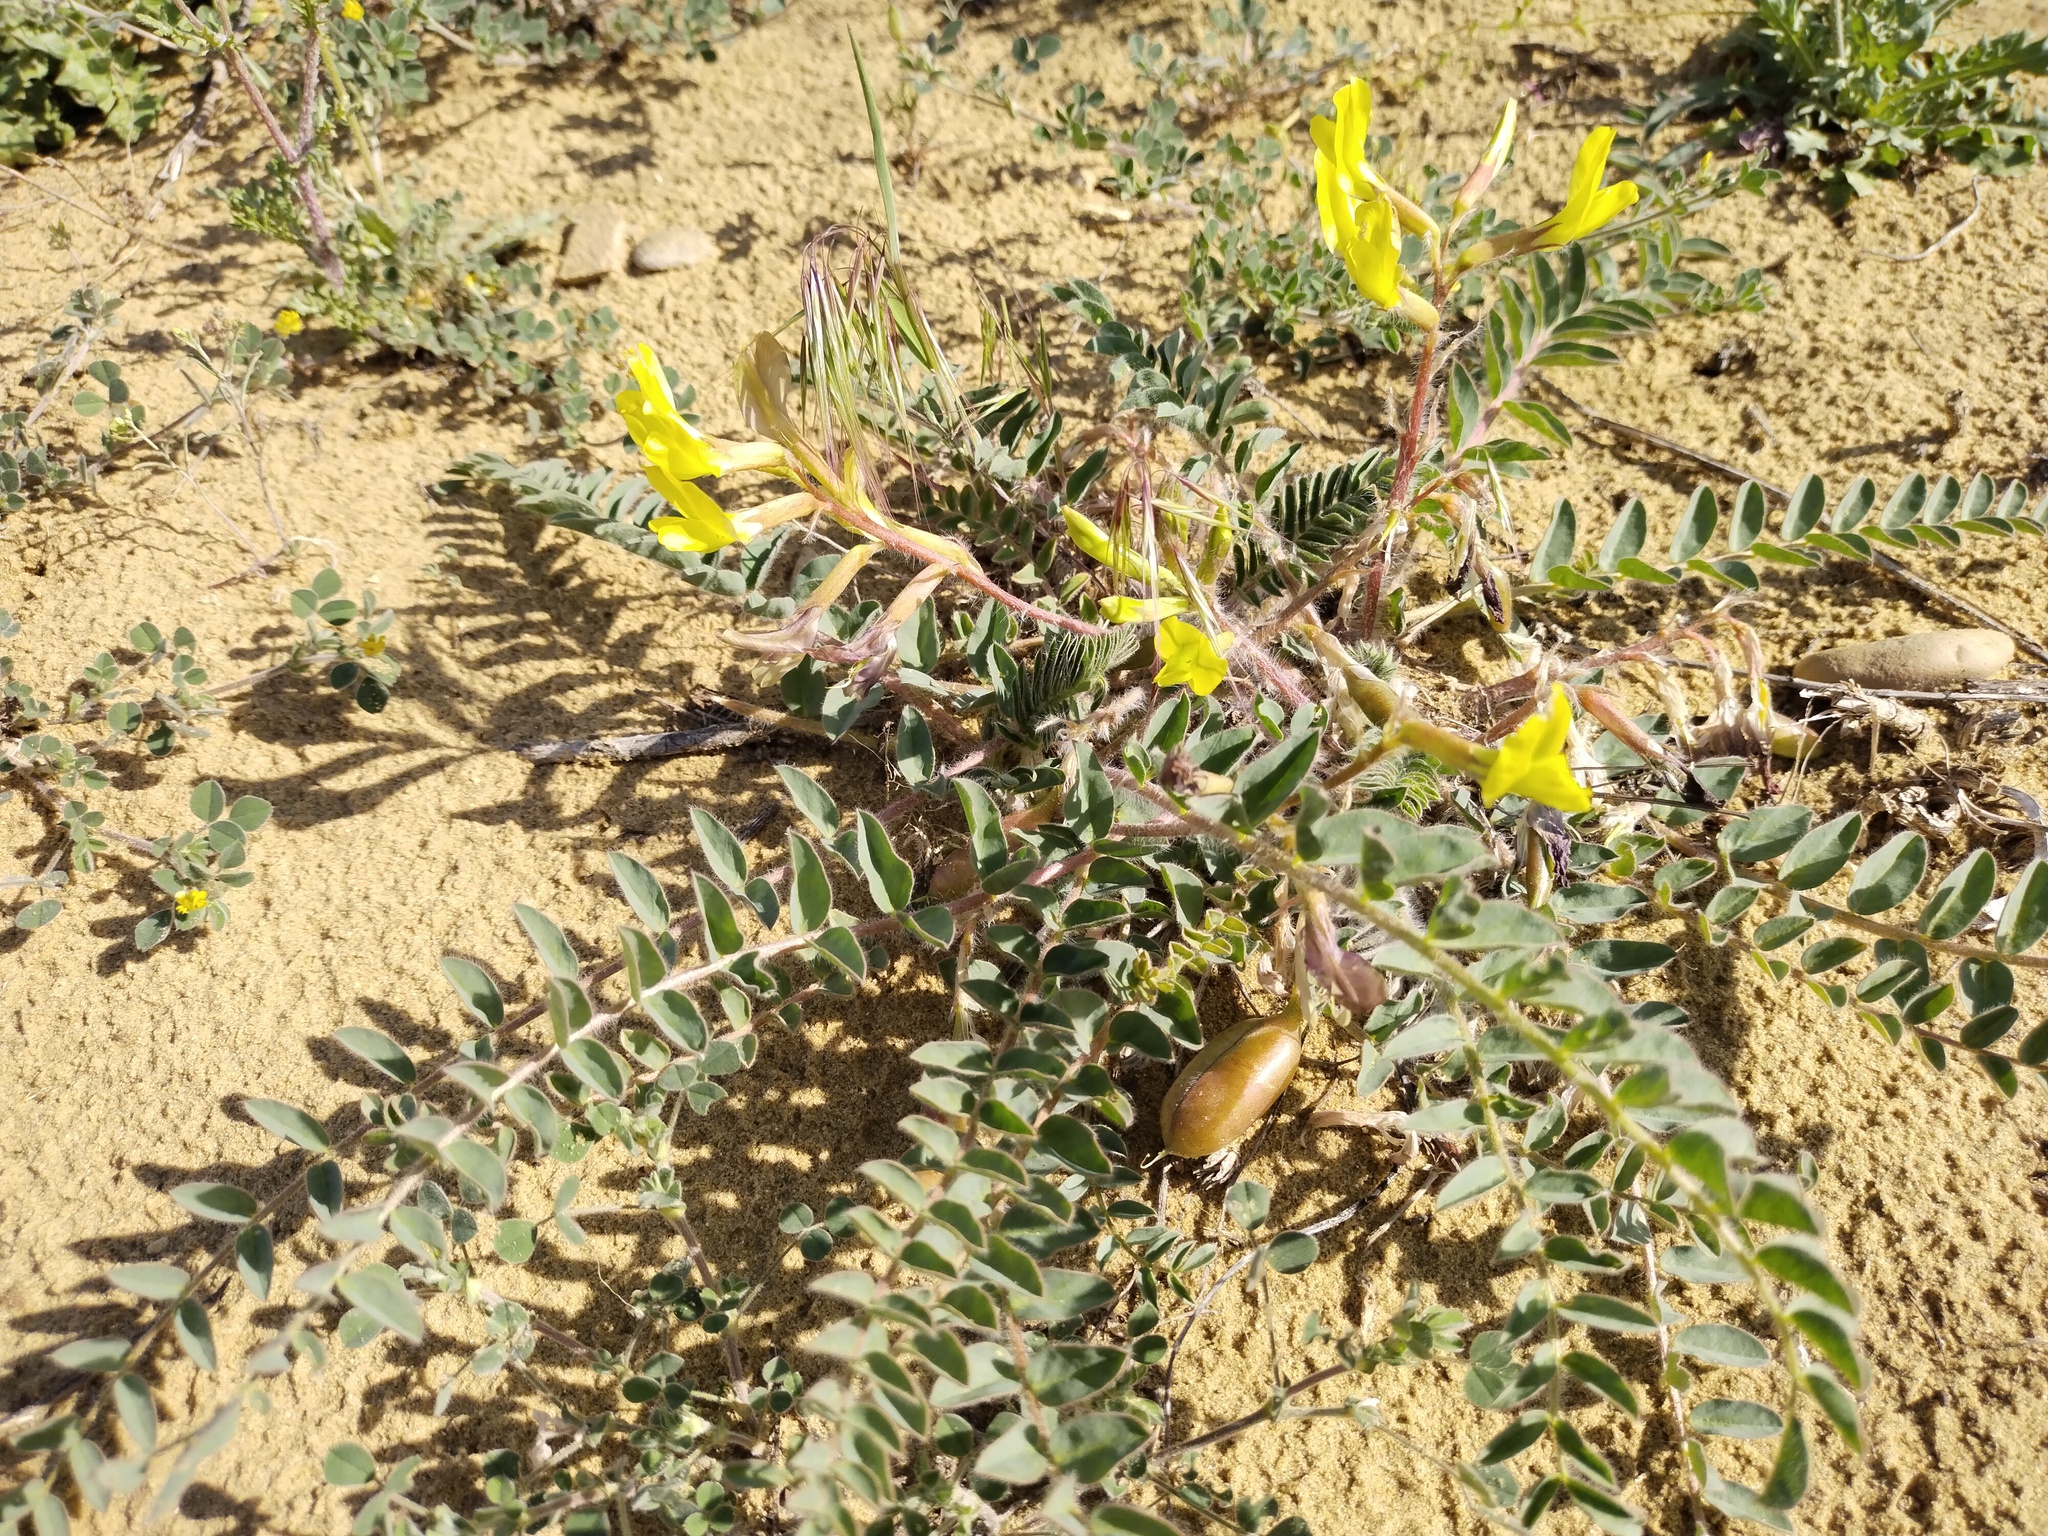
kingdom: Plantae
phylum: Tracheophyta
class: Magnoliopsida
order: Fabales
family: Fabaceae
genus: Astragalus
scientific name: Astragalus longipetalus
